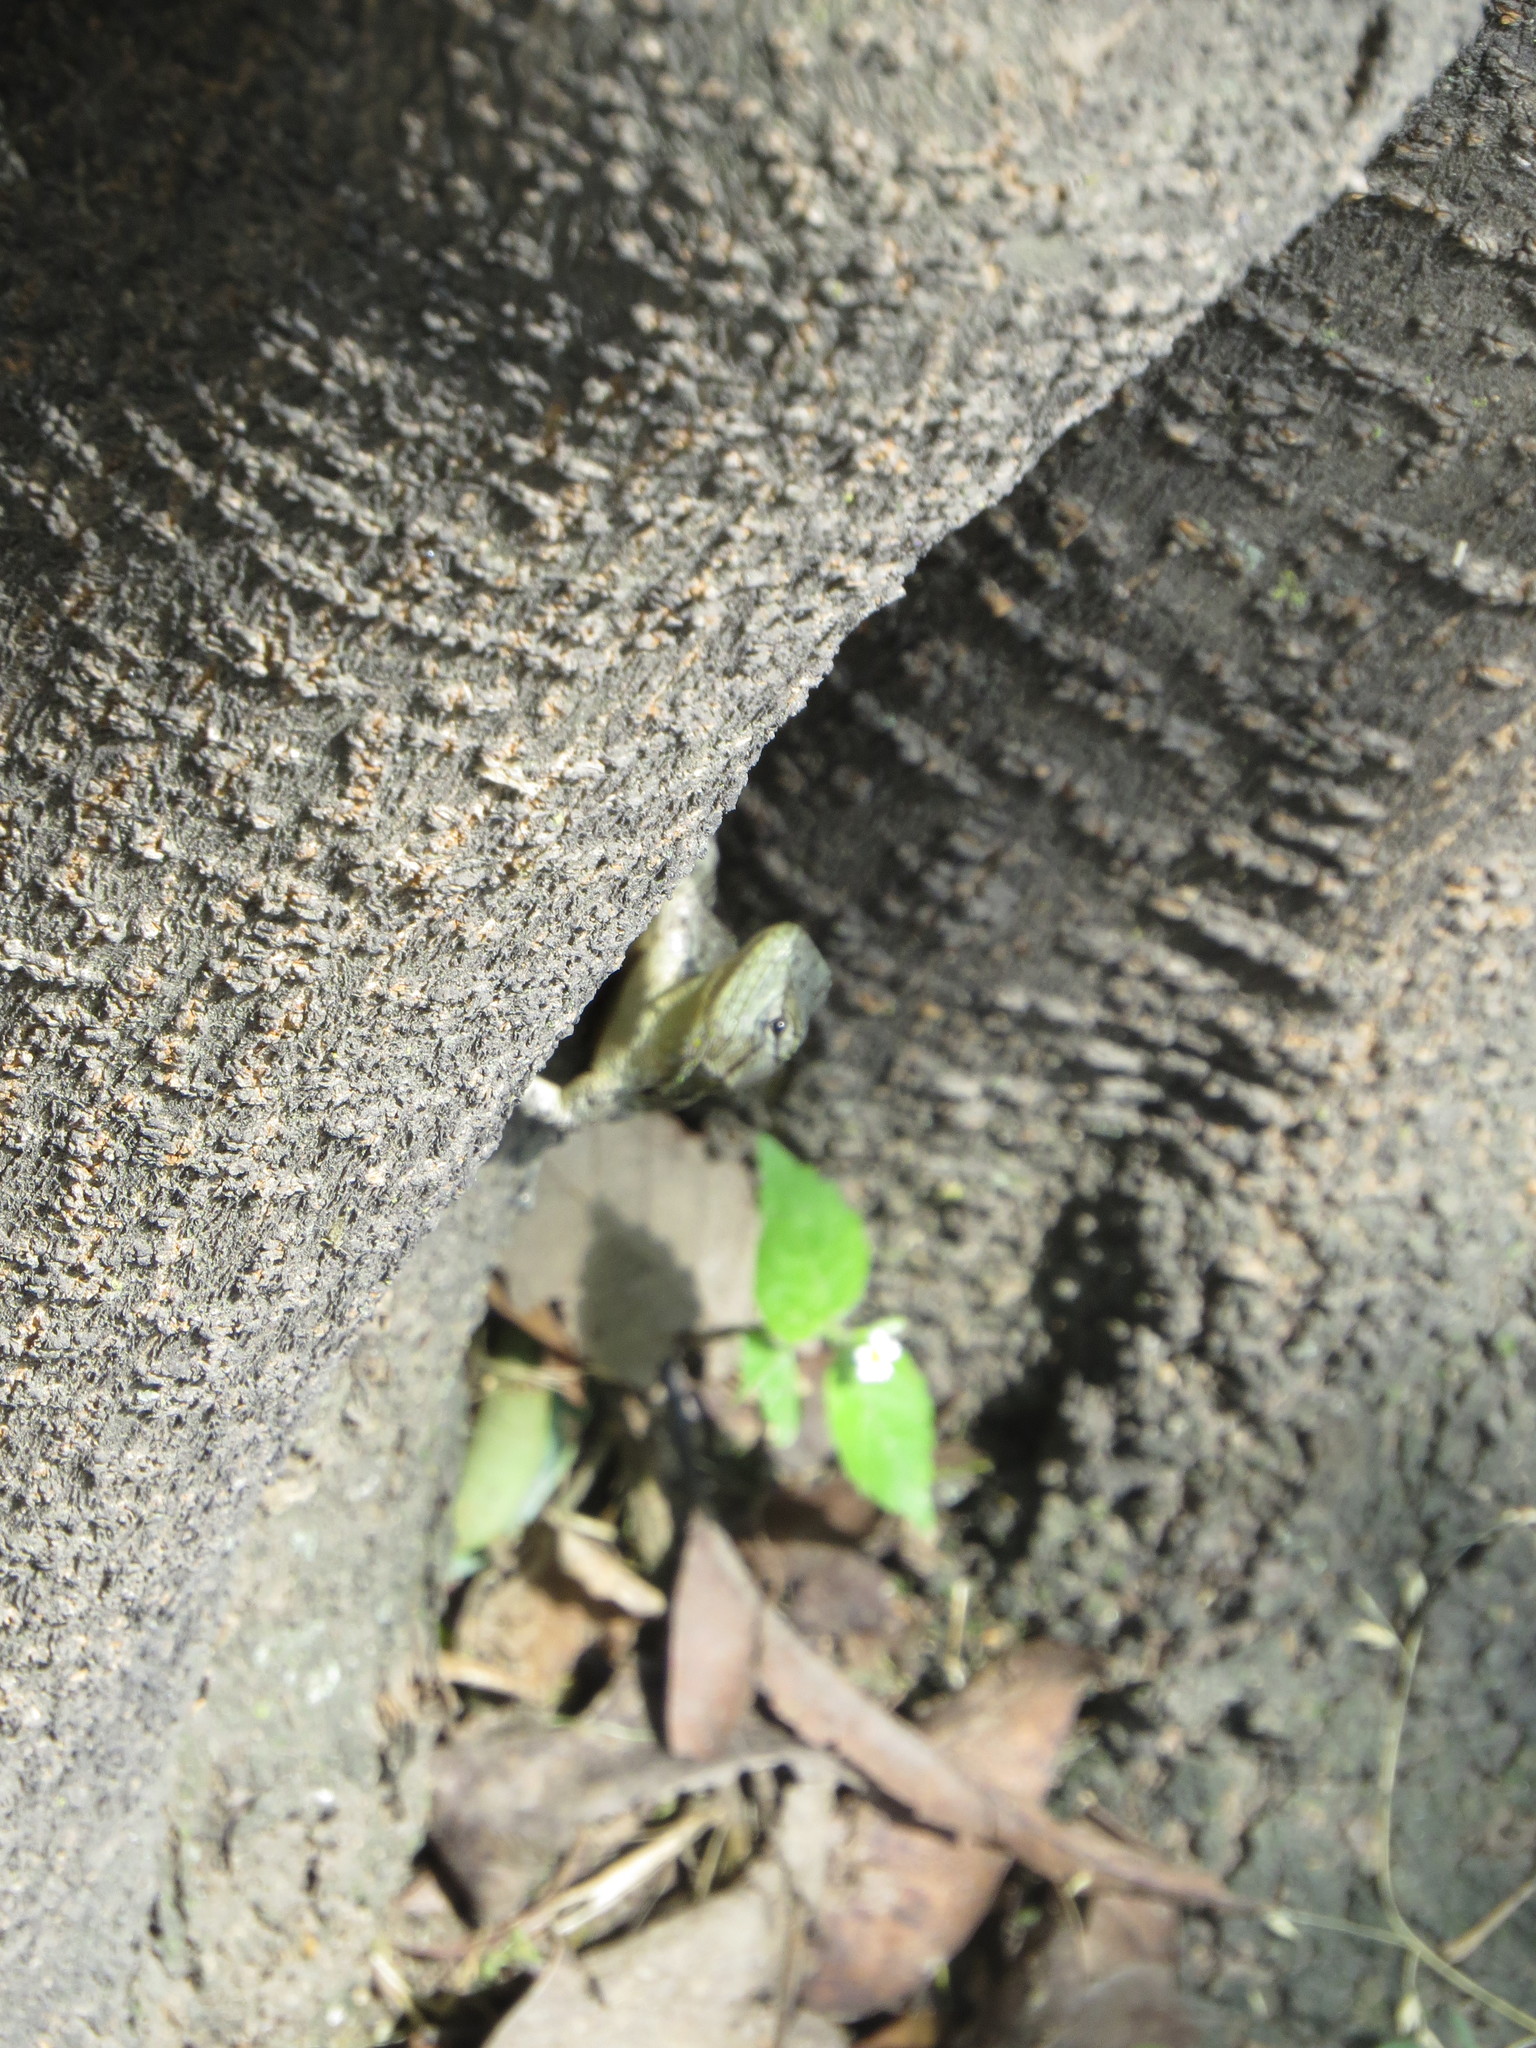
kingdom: Animalia
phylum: Chordata
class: Squamata
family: Phrynosomatidae
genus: Sceloporus
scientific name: Sceloporus grammicus
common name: Mesquite lizard
